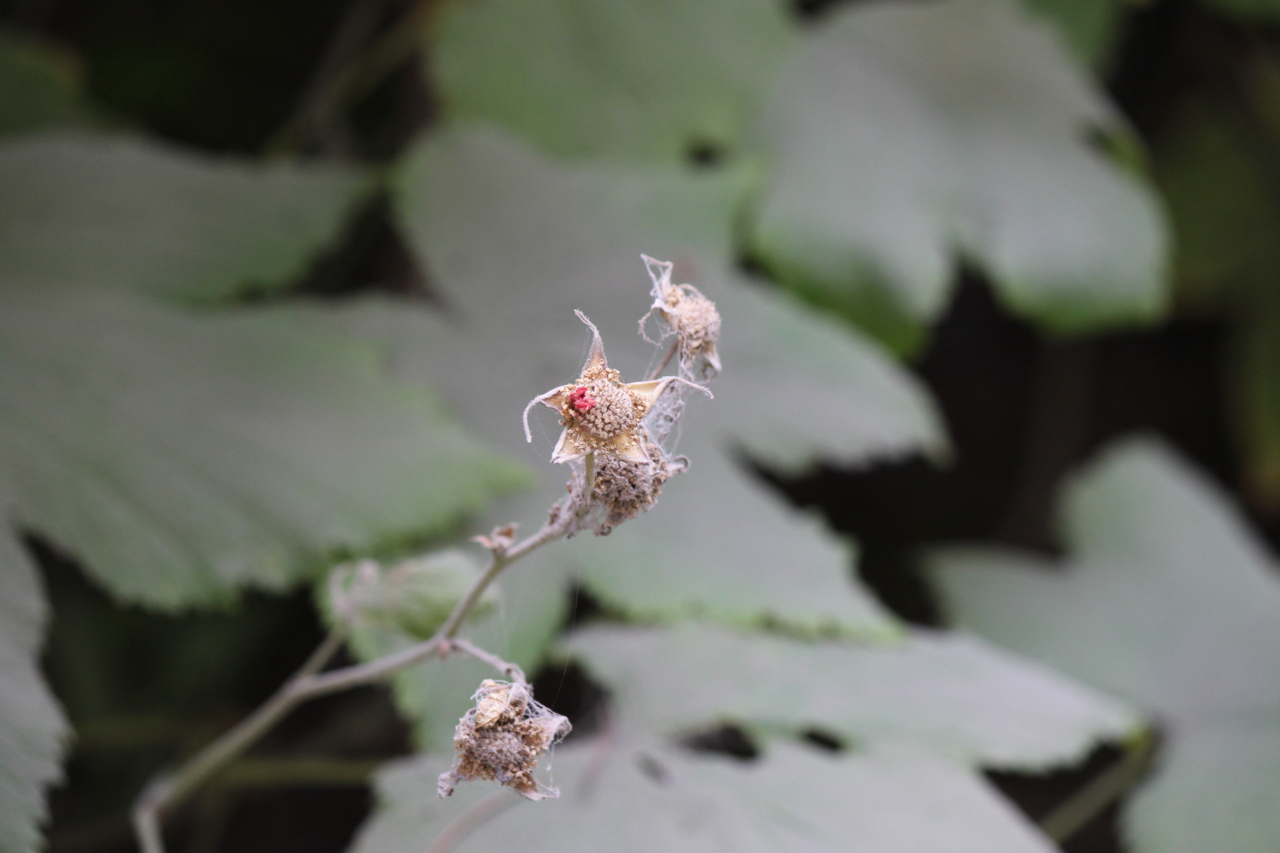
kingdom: Plantae
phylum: Tracheophyta
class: Magnoliopsida
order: Rosales
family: Rosaceae
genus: Rubus
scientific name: Rubus parviflorus
